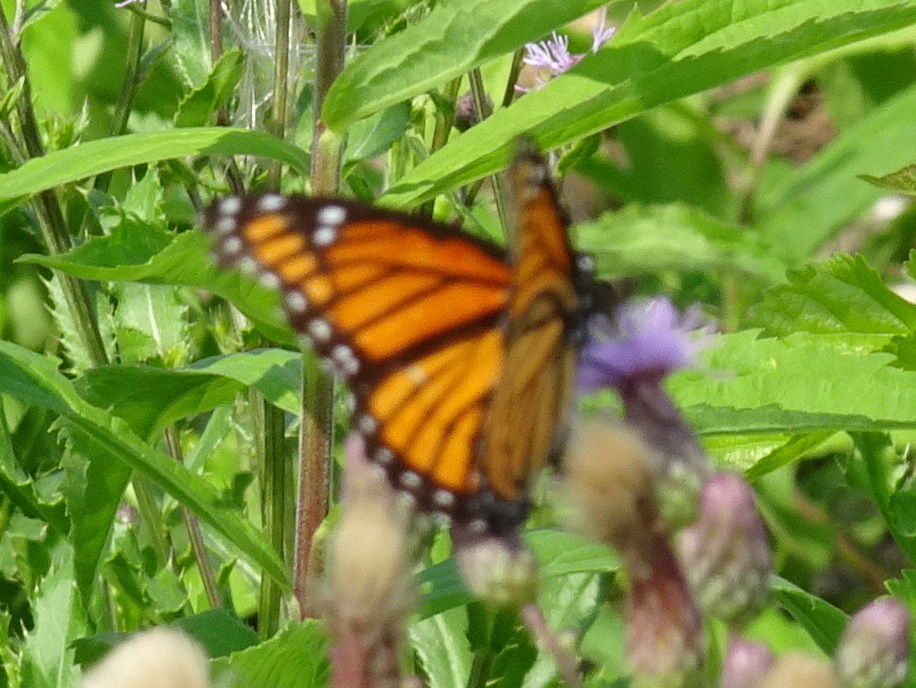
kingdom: Animalia
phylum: Arthropoda
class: Insecta
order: Lepidoptera
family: Nymphalidae
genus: Limenitis
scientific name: Limenitis archippus
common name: Viceroy
